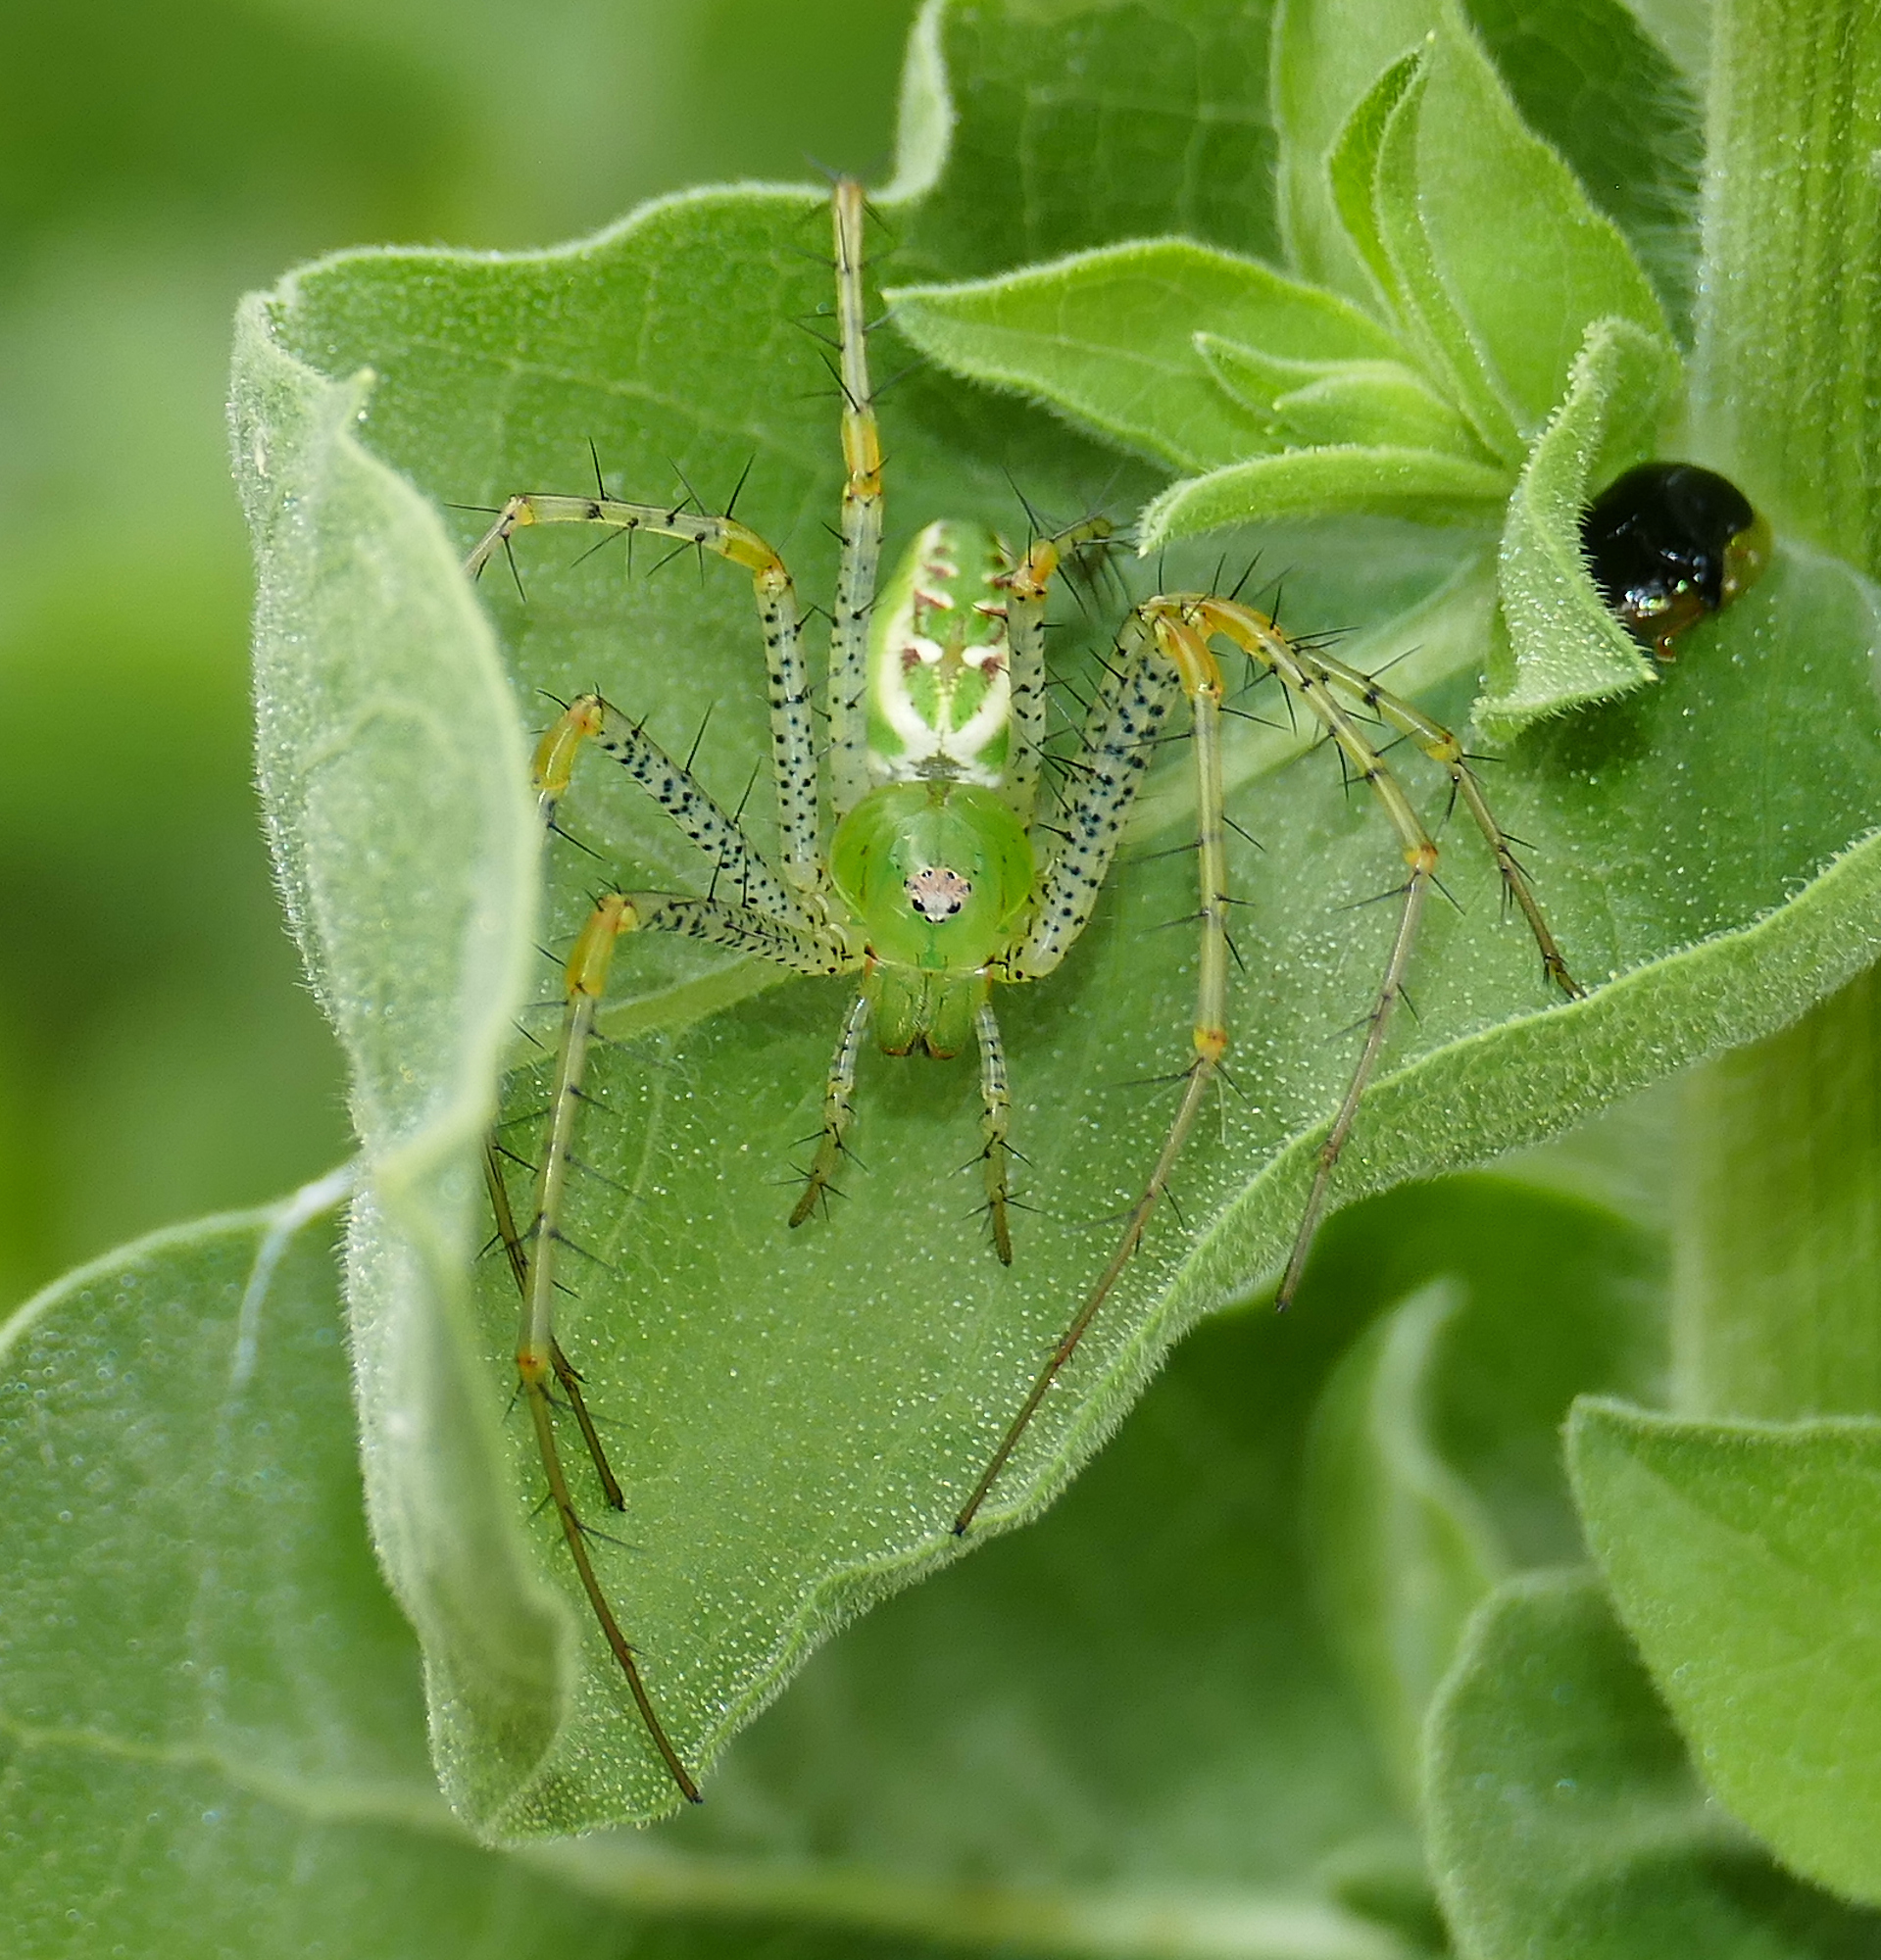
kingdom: Animalia
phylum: Arthropoda
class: Arachnida
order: Araneae
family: Oxyopidae
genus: Peucetia
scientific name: Peucetia viridans
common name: Lynx spiders
